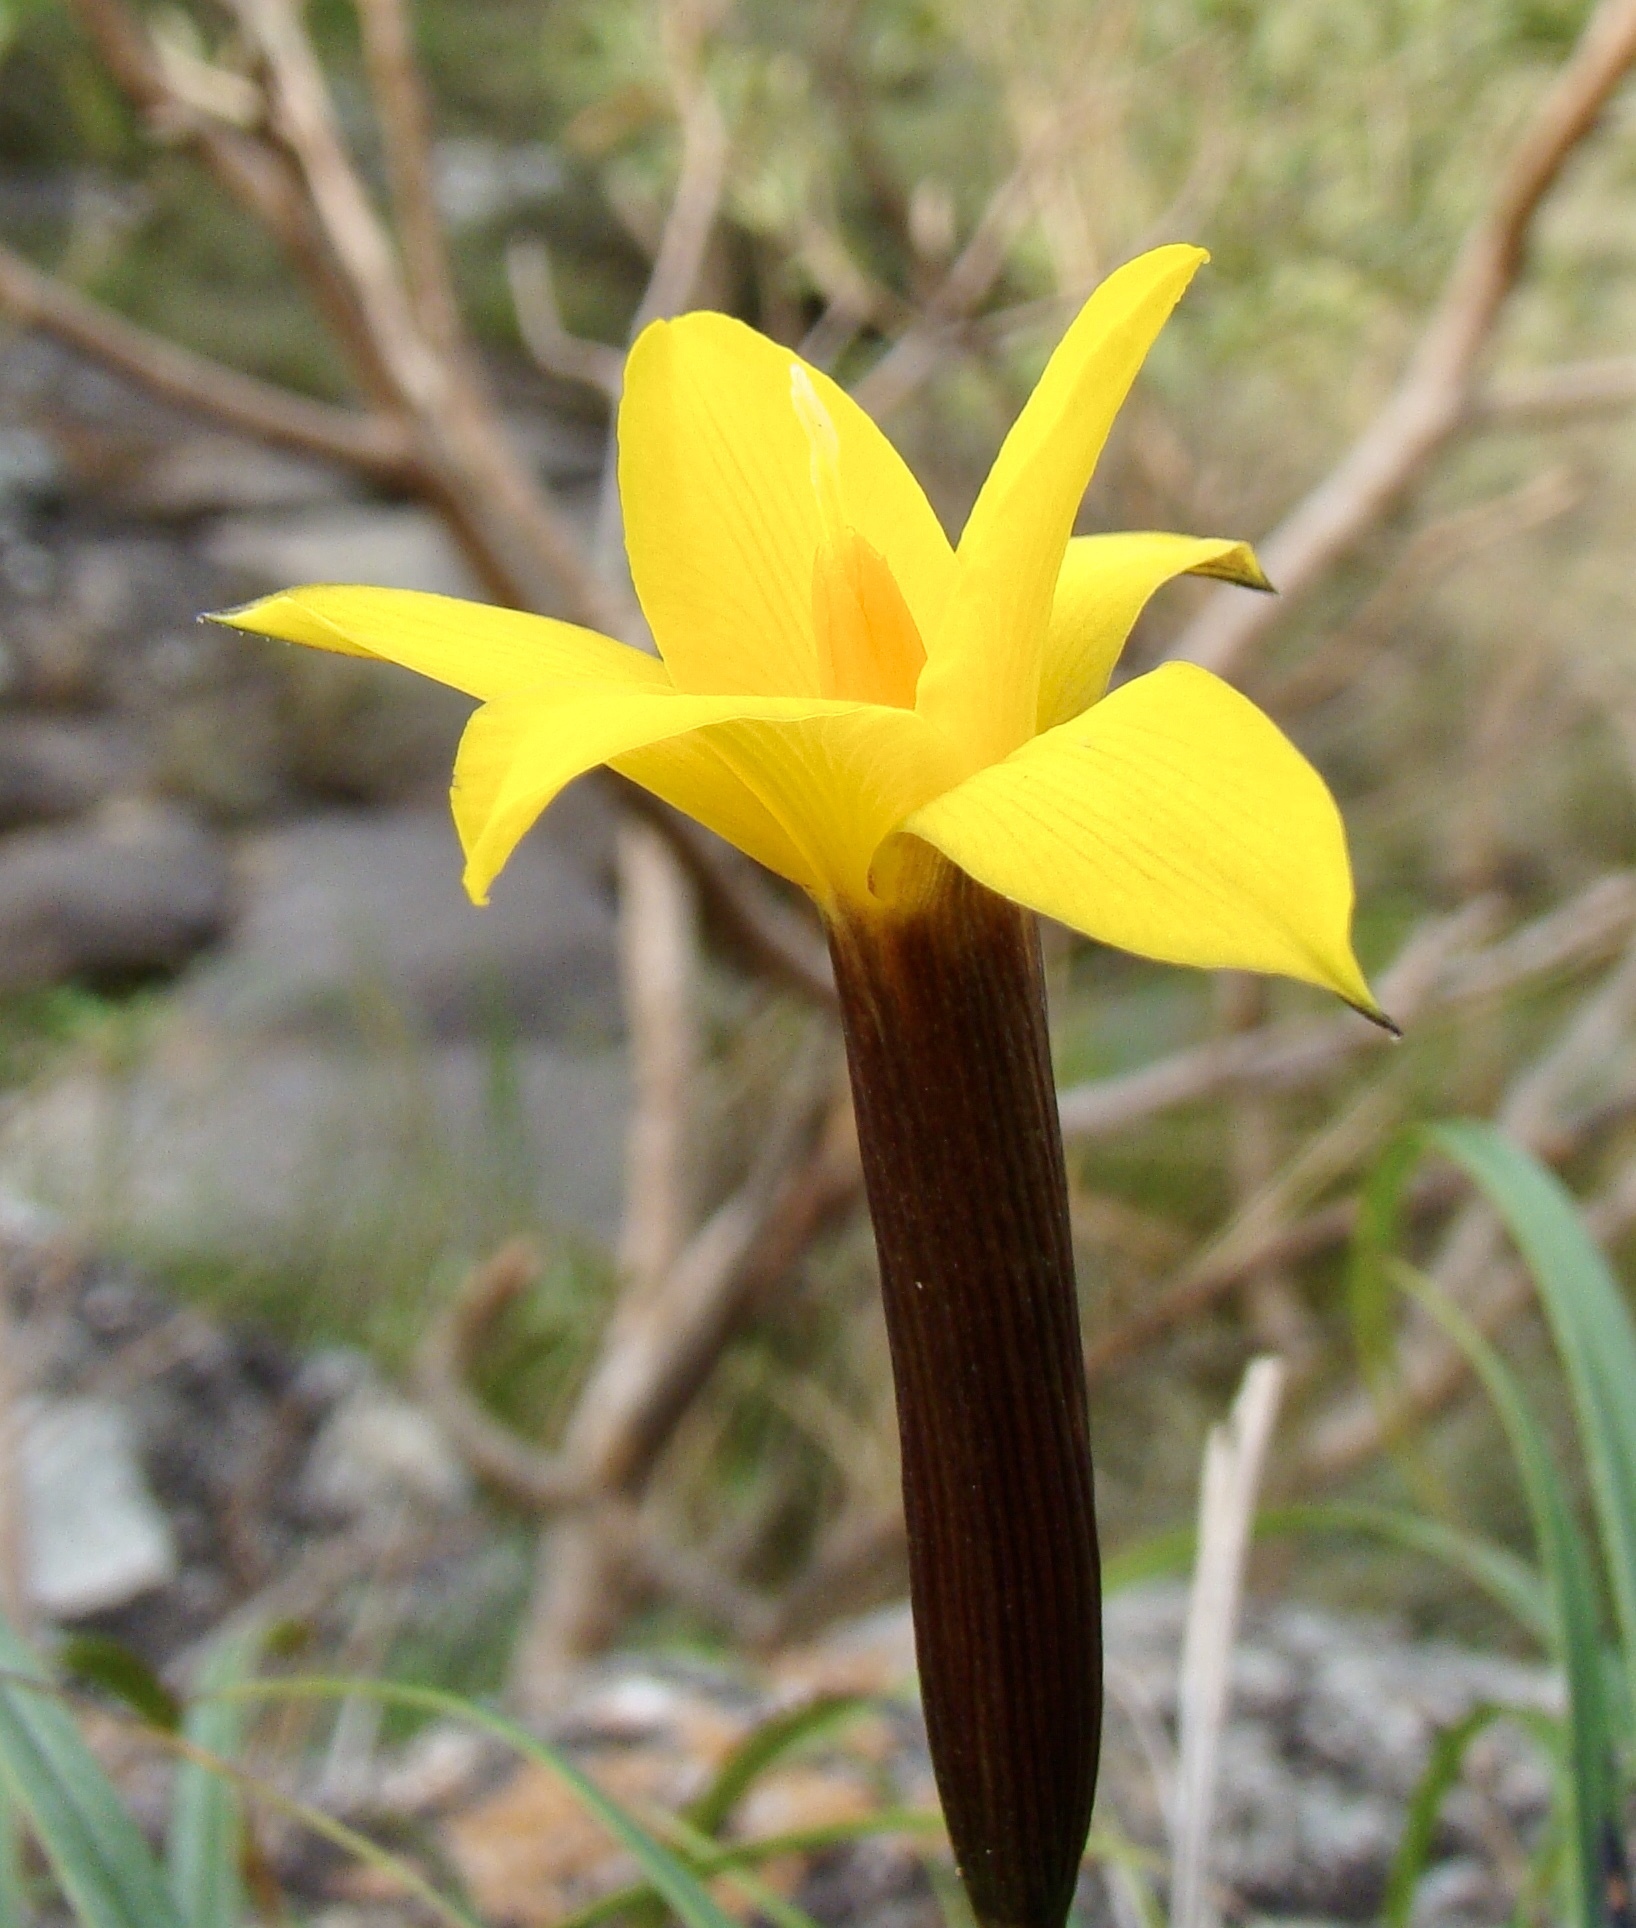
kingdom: Plantae
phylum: Tracheophyta
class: Liliopsida
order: Pandanales
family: Velloziaceae
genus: Barbacenia
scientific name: Barbacenia glabra
